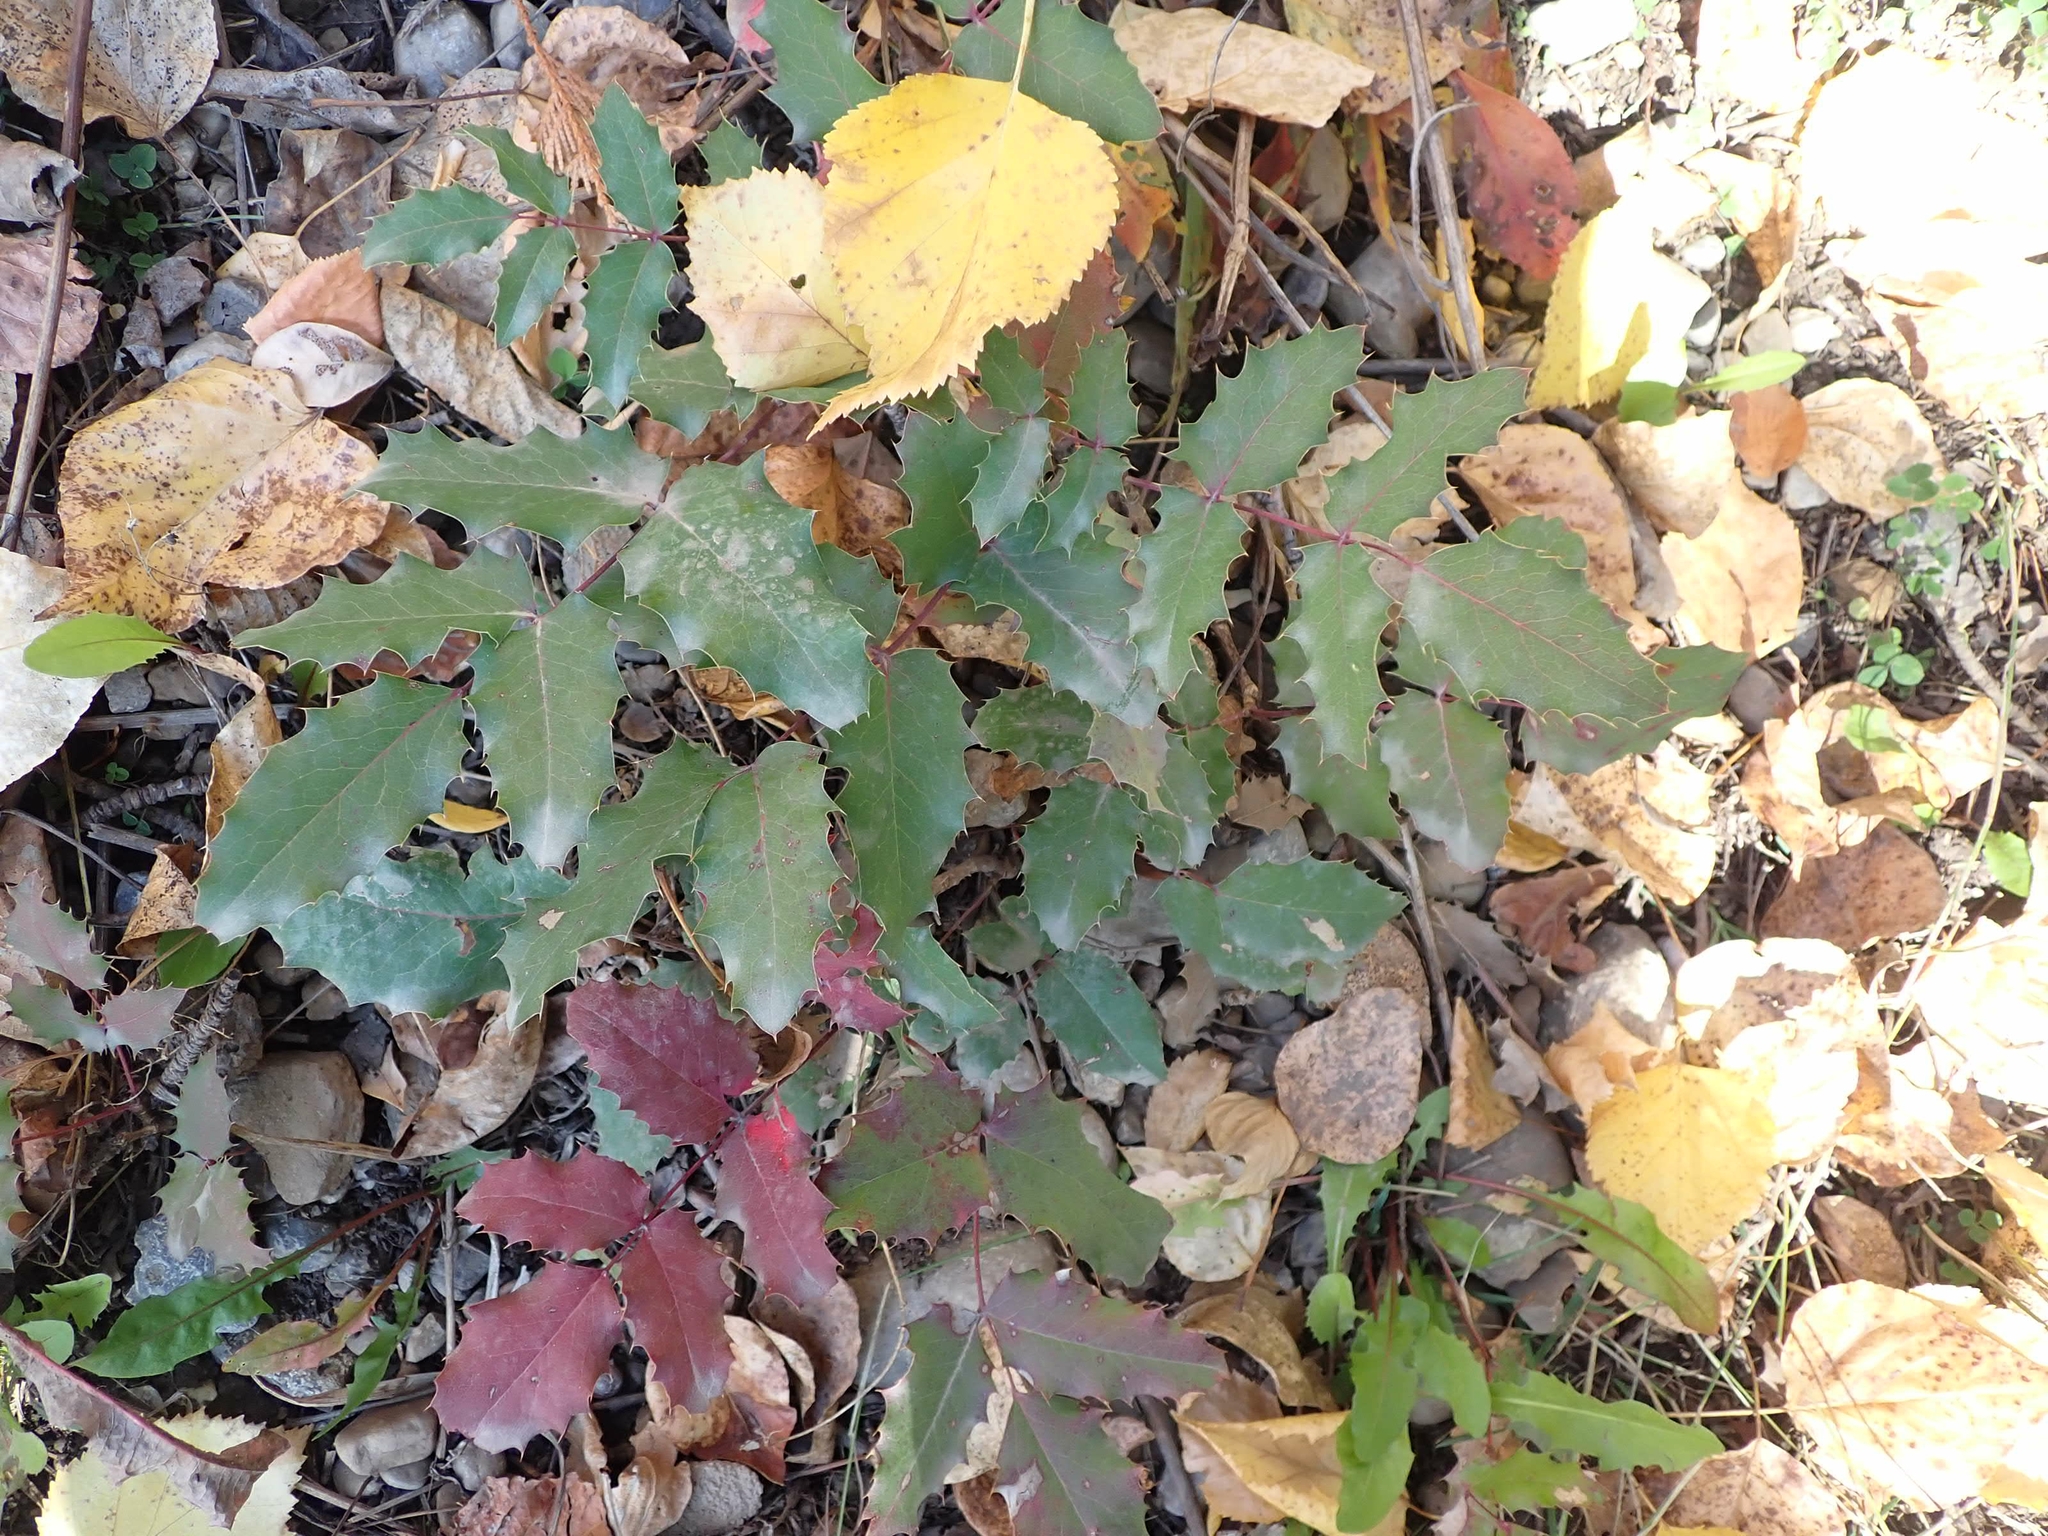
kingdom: Plantae
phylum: Tracheophyta
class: Magnoliopsida
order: Ranunculales
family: Berberidaceae
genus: Mahonia
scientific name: Mahonia aquifolium
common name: Oregon-grape
